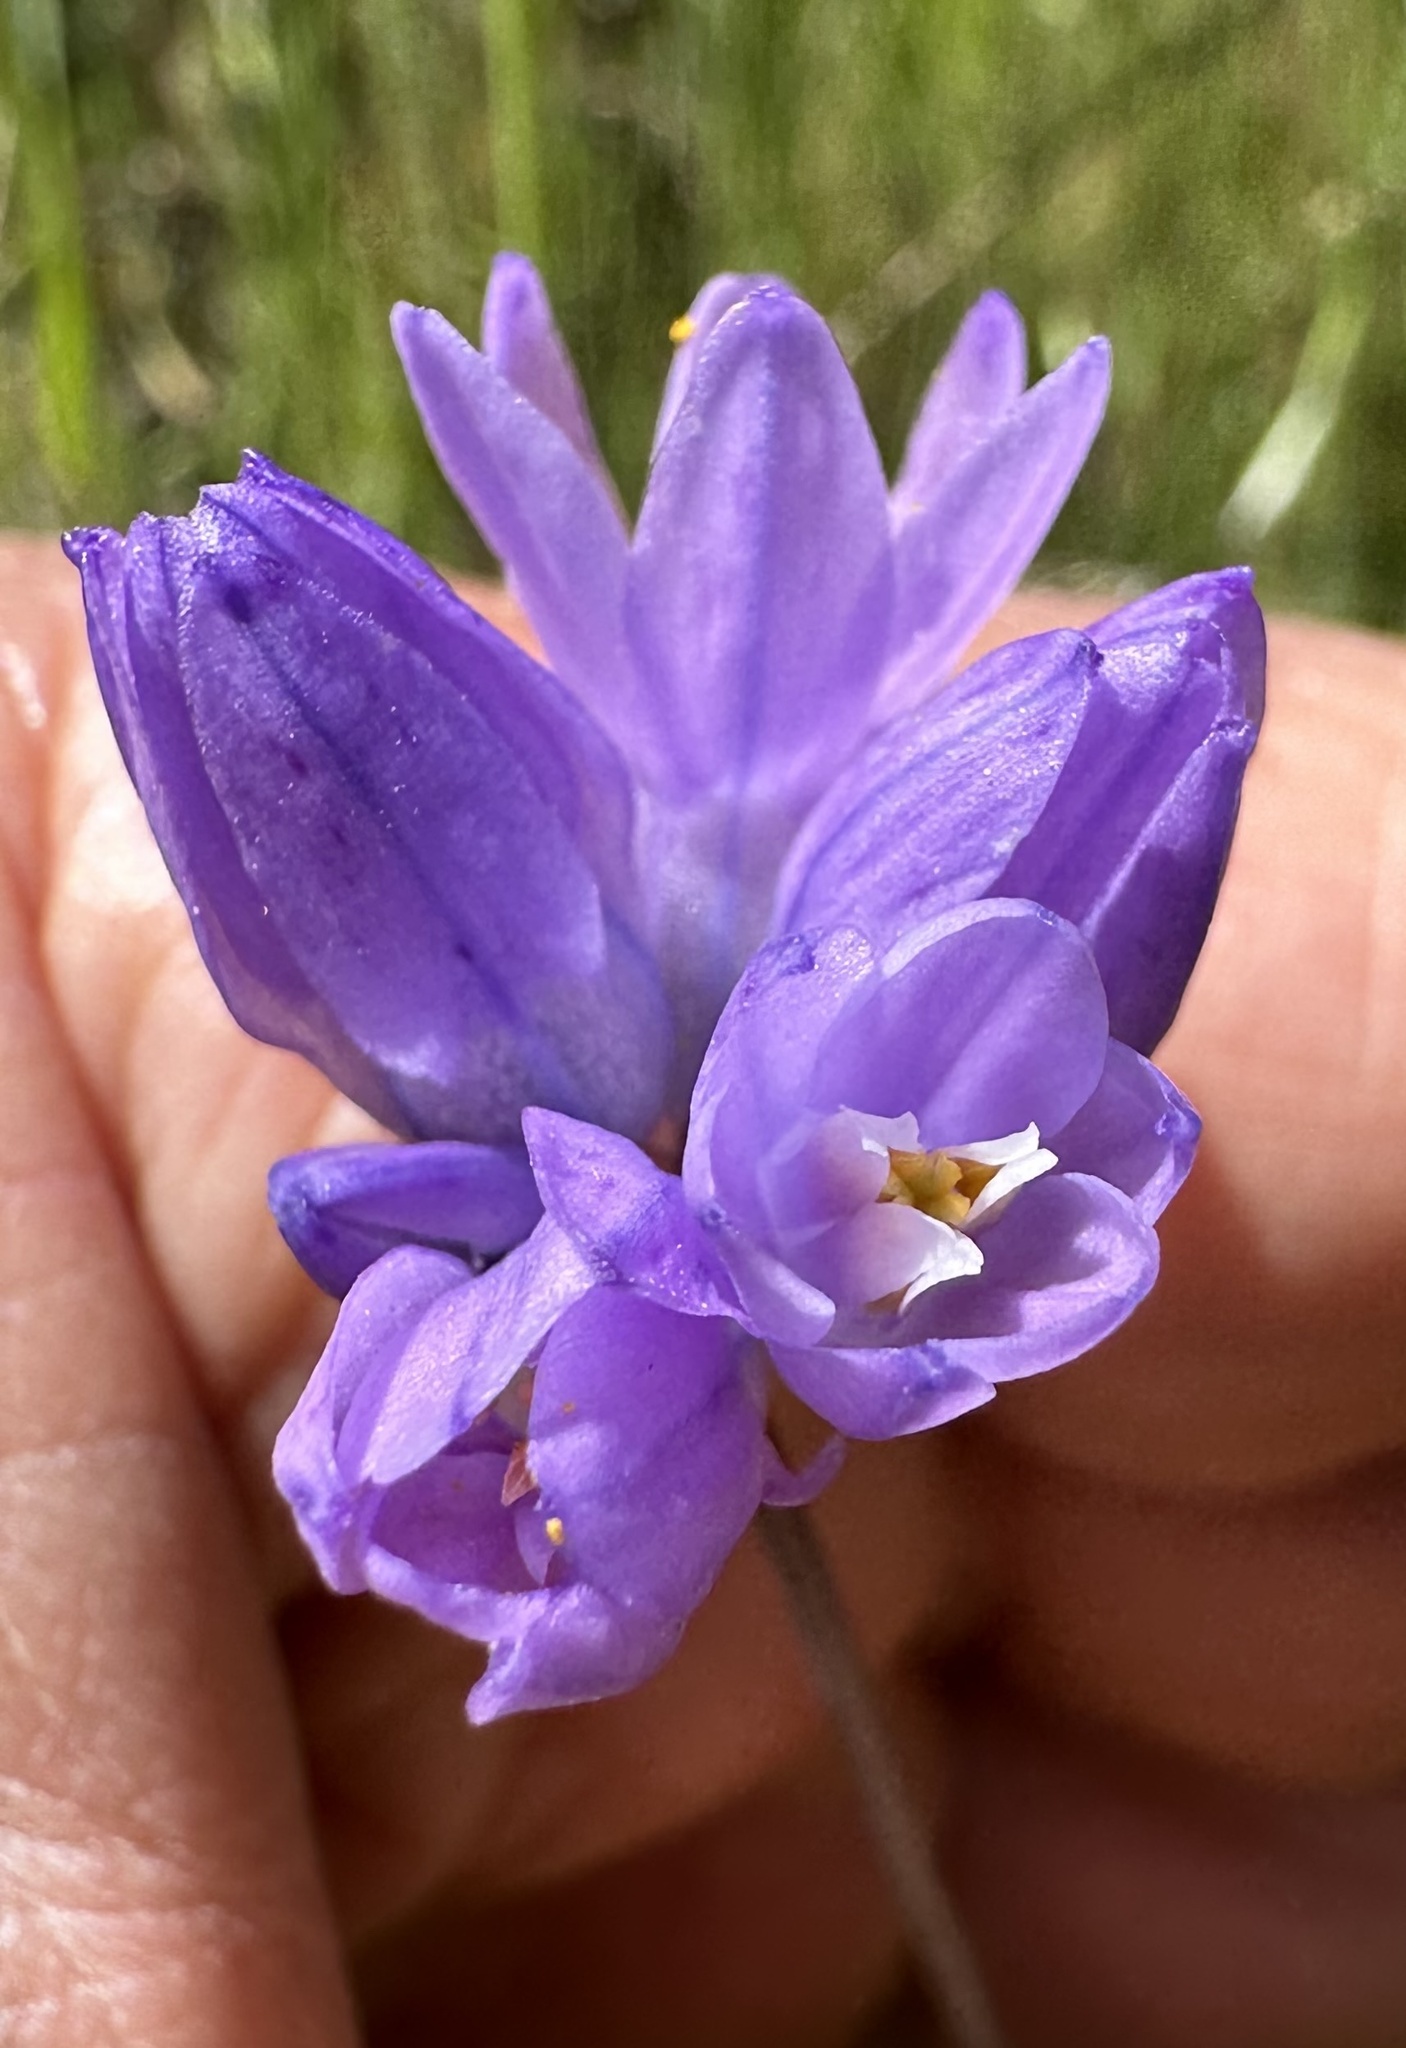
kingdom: Plantae
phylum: Tracheophyta
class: Liliopsida
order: Asparagales
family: Asparagaceae
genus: Dipterostemon
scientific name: Dipterostemon capitatus
